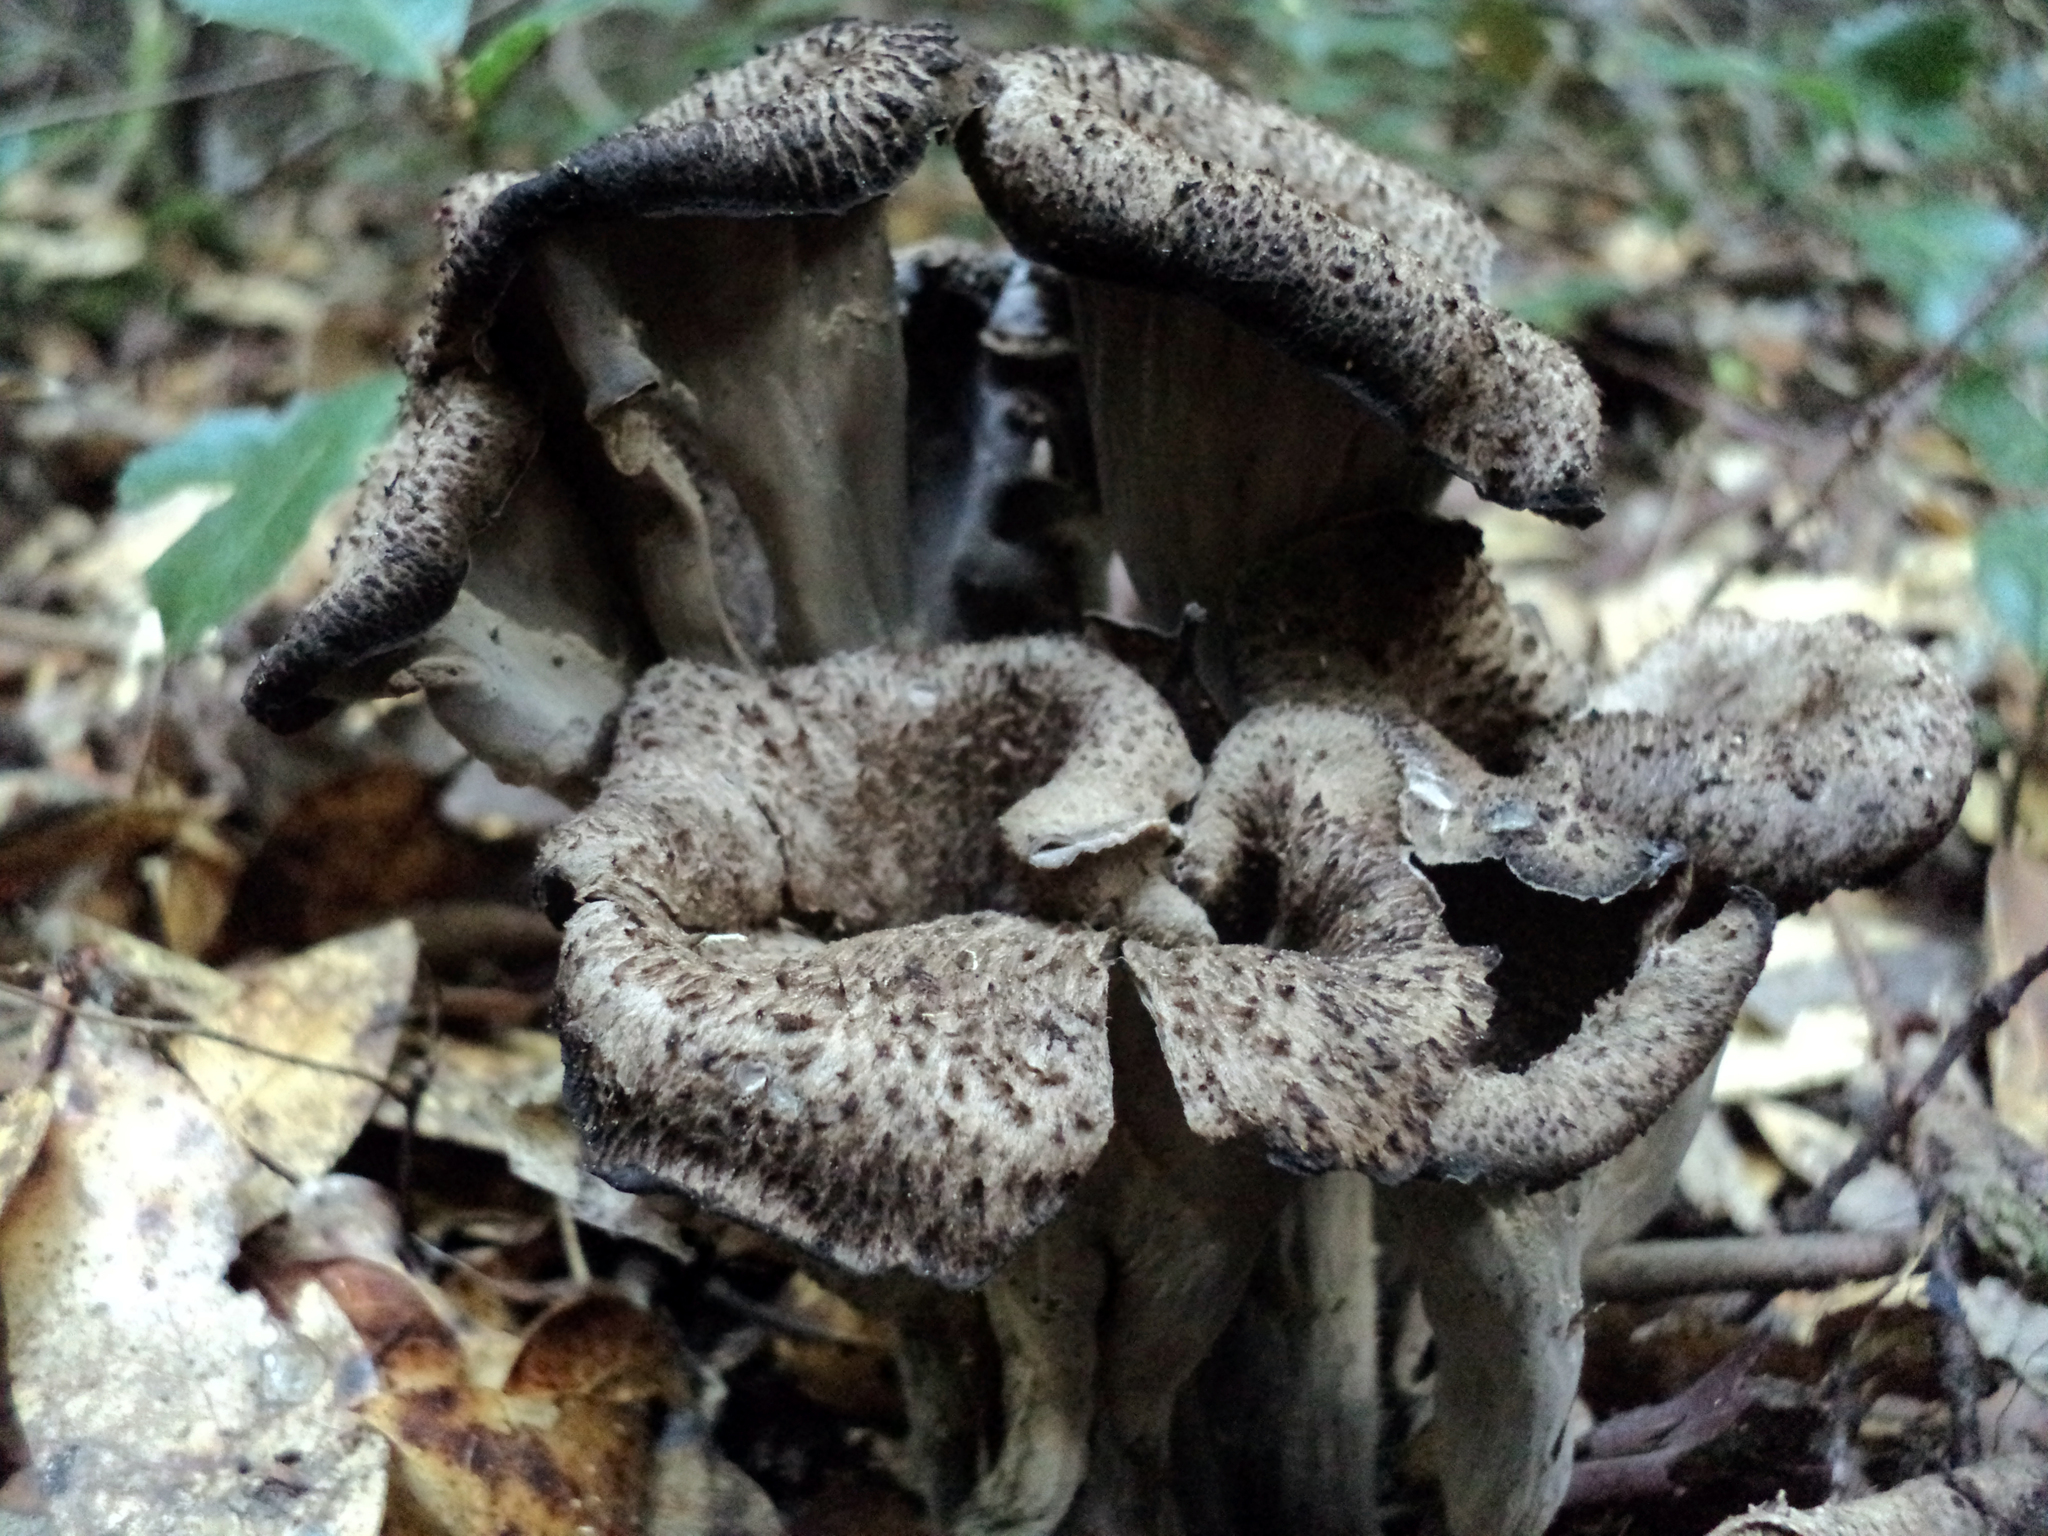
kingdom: Fungi
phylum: Basidiomycota
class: Agaricomycetes
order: Cantharellales
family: Hydnaceae
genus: Craterellus
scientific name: Craterellus calicornucopioides
